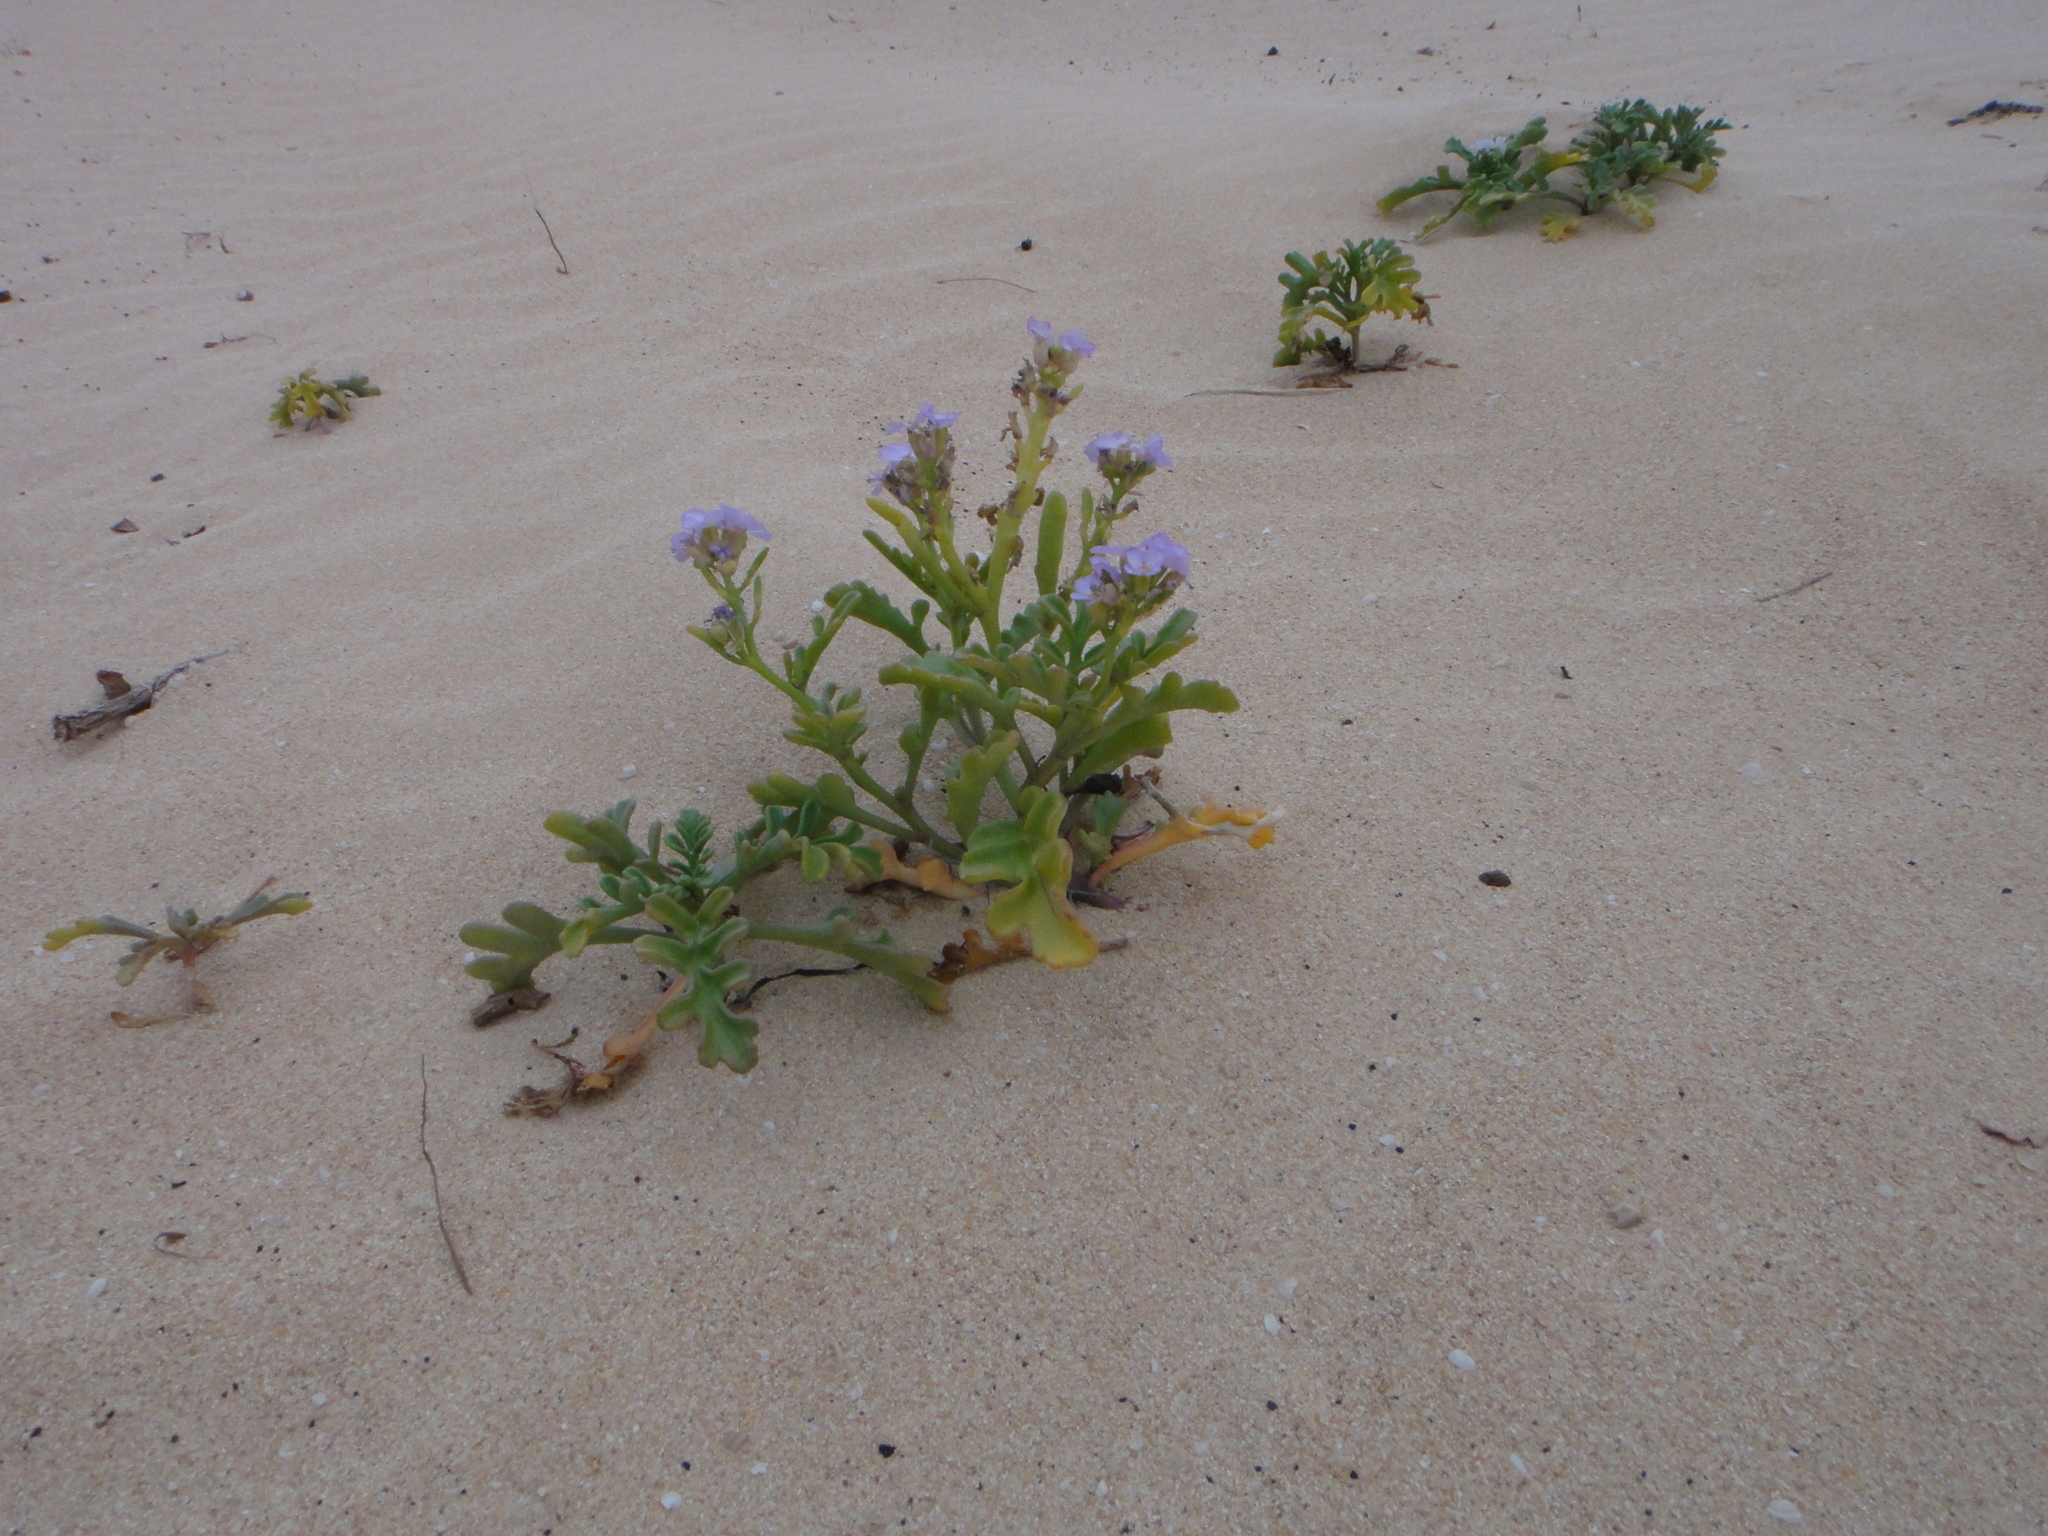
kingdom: Plantae
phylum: Tracheophyta
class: Magnoliopsida
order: Brassicales
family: Brassicaceae
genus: Cakile
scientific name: Cakile maritima
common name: Sea rocket
